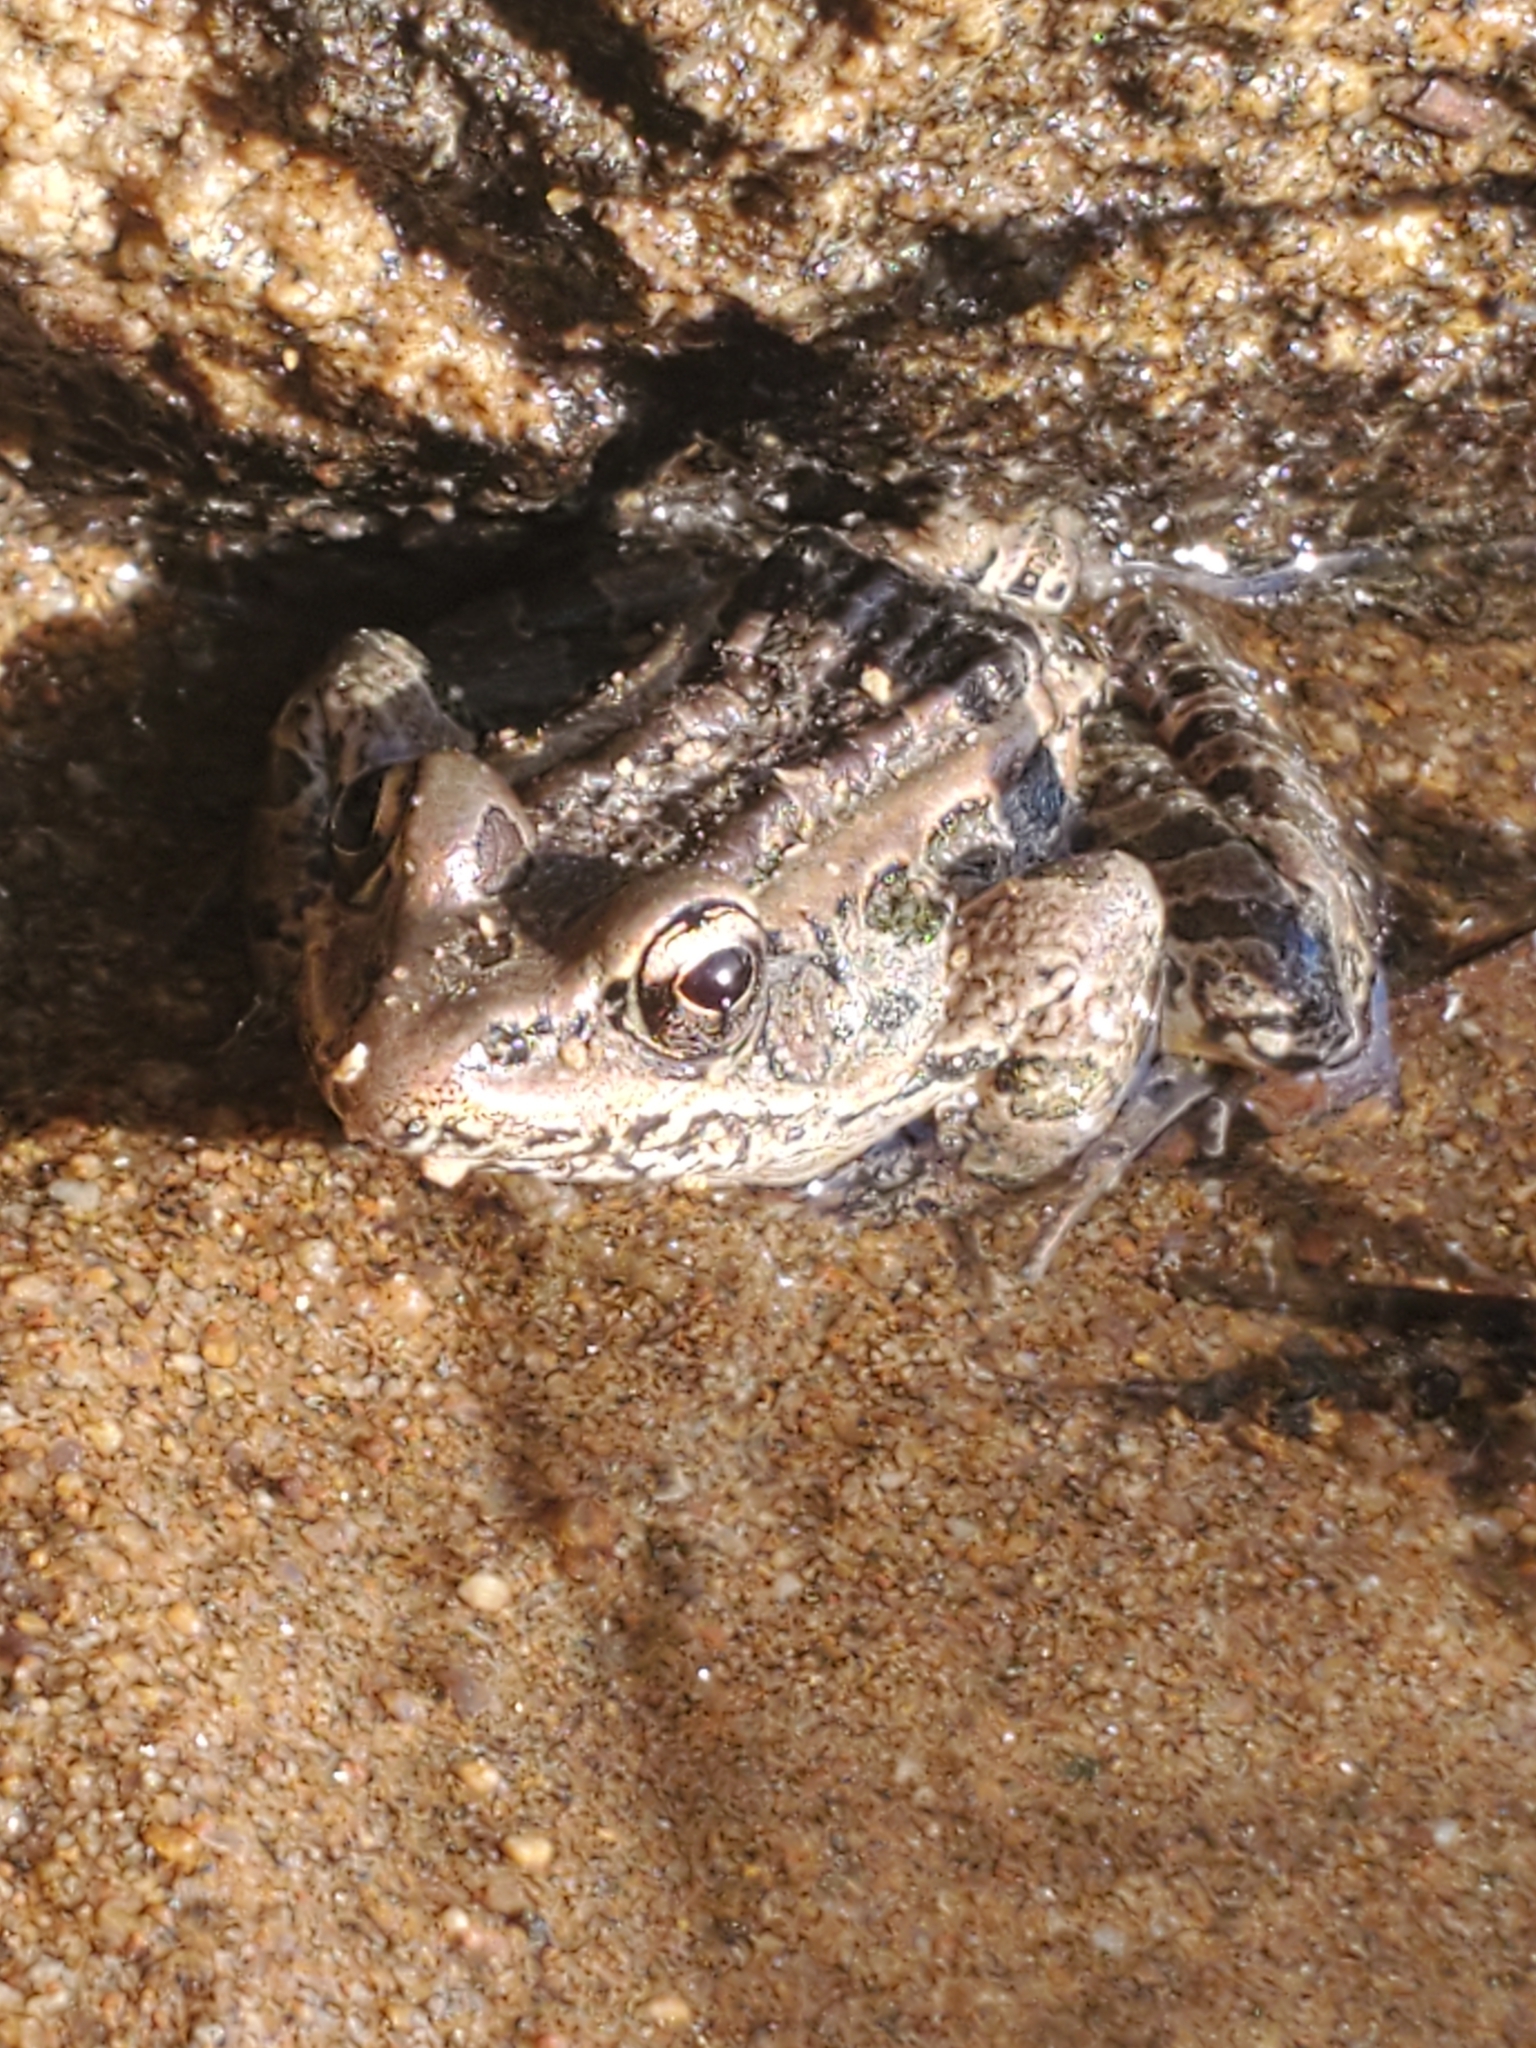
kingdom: Animalia
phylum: Chordata
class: Amphibia
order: Anura
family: Ranidae
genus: Lithobates
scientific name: Lithobates palustris
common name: Pickerel frog
